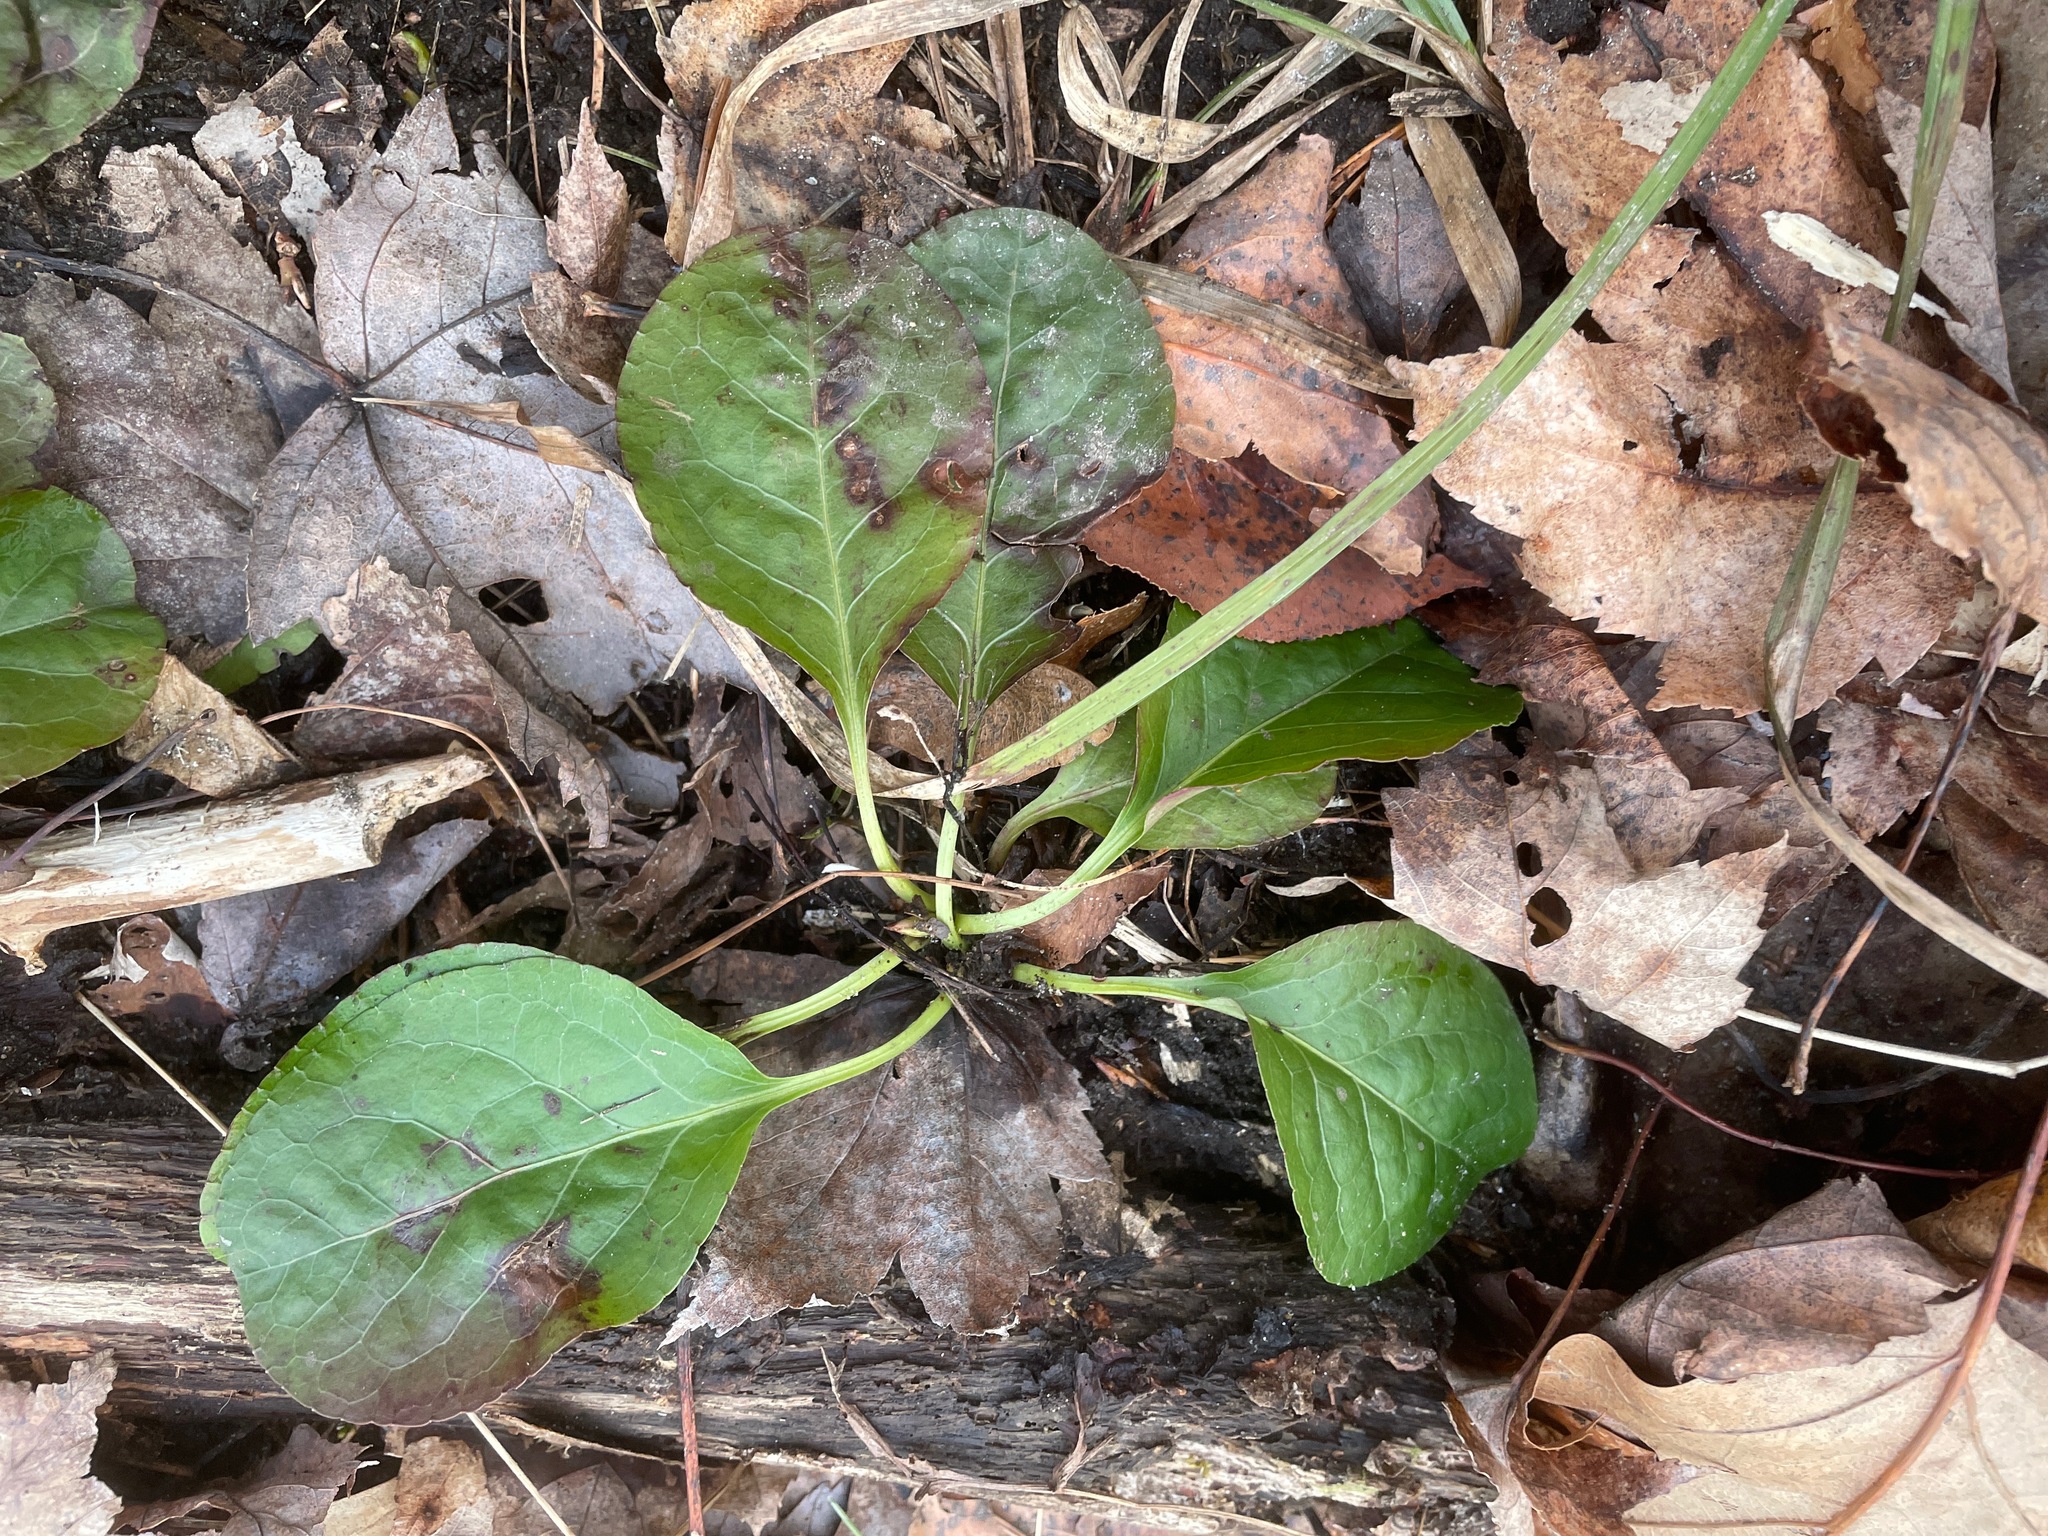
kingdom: Plantae
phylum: Tracheophyta
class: Magnoliopsida
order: Ericales
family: Ericaceae
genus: Pyrola
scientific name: Pyrola elliptica
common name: Shinleaf
